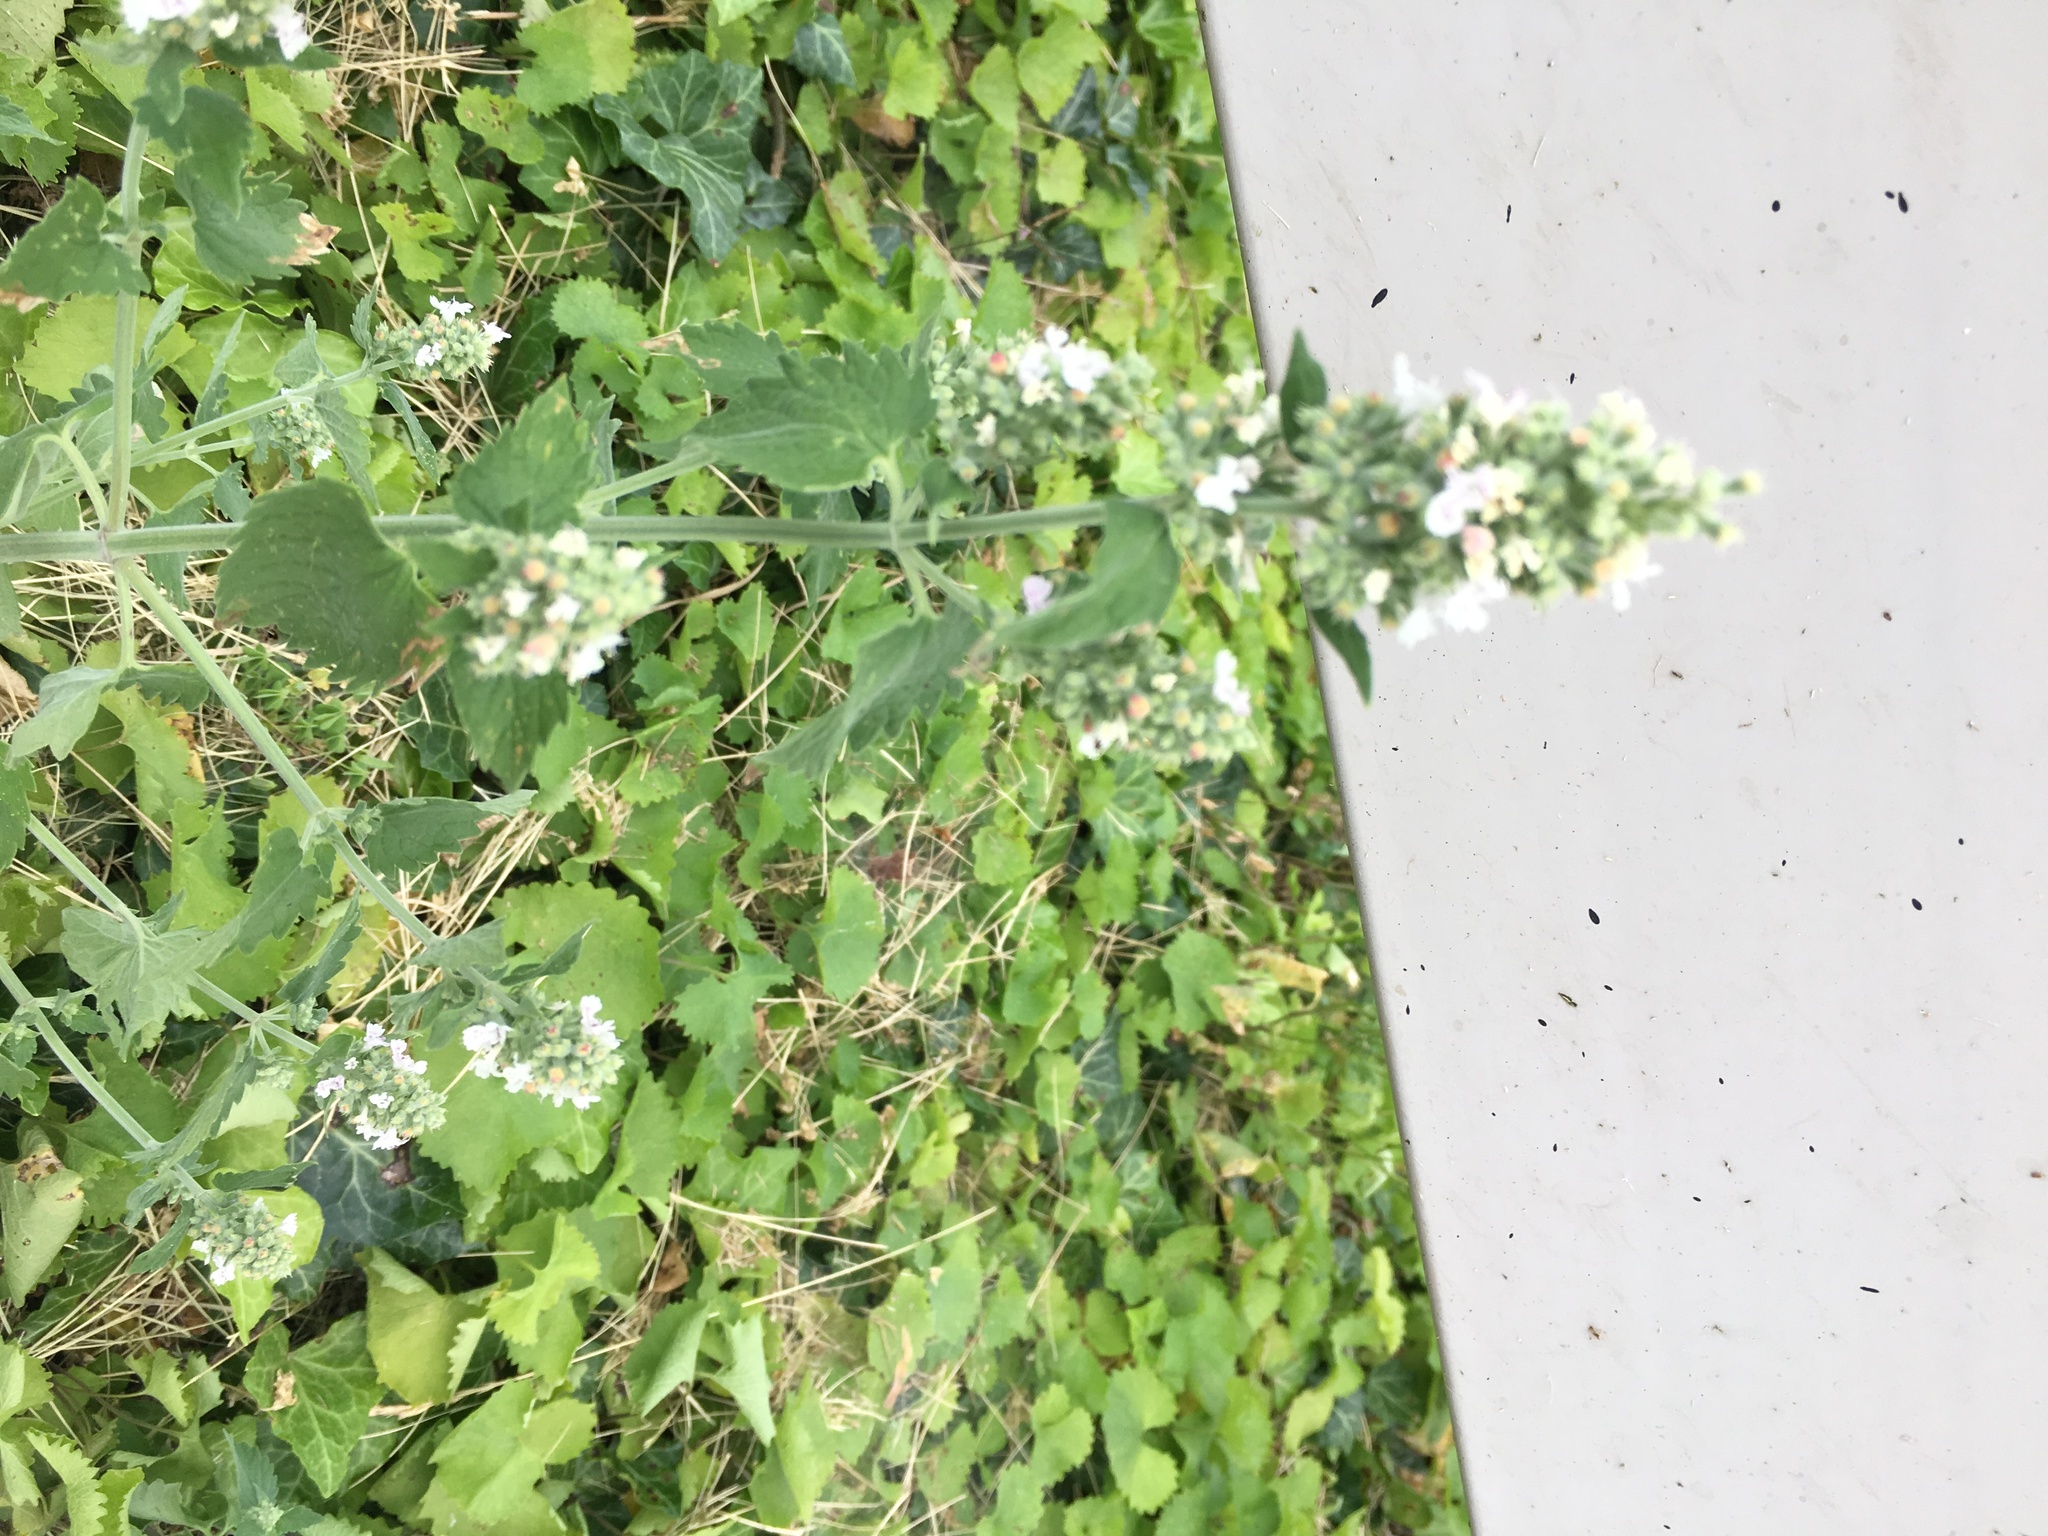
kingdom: Plantae
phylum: Tracheophyta
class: Magnoliopsida
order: Lamiales
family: Lamiaceae
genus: Nepeta
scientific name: Nepeta cataria
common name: Catnip
